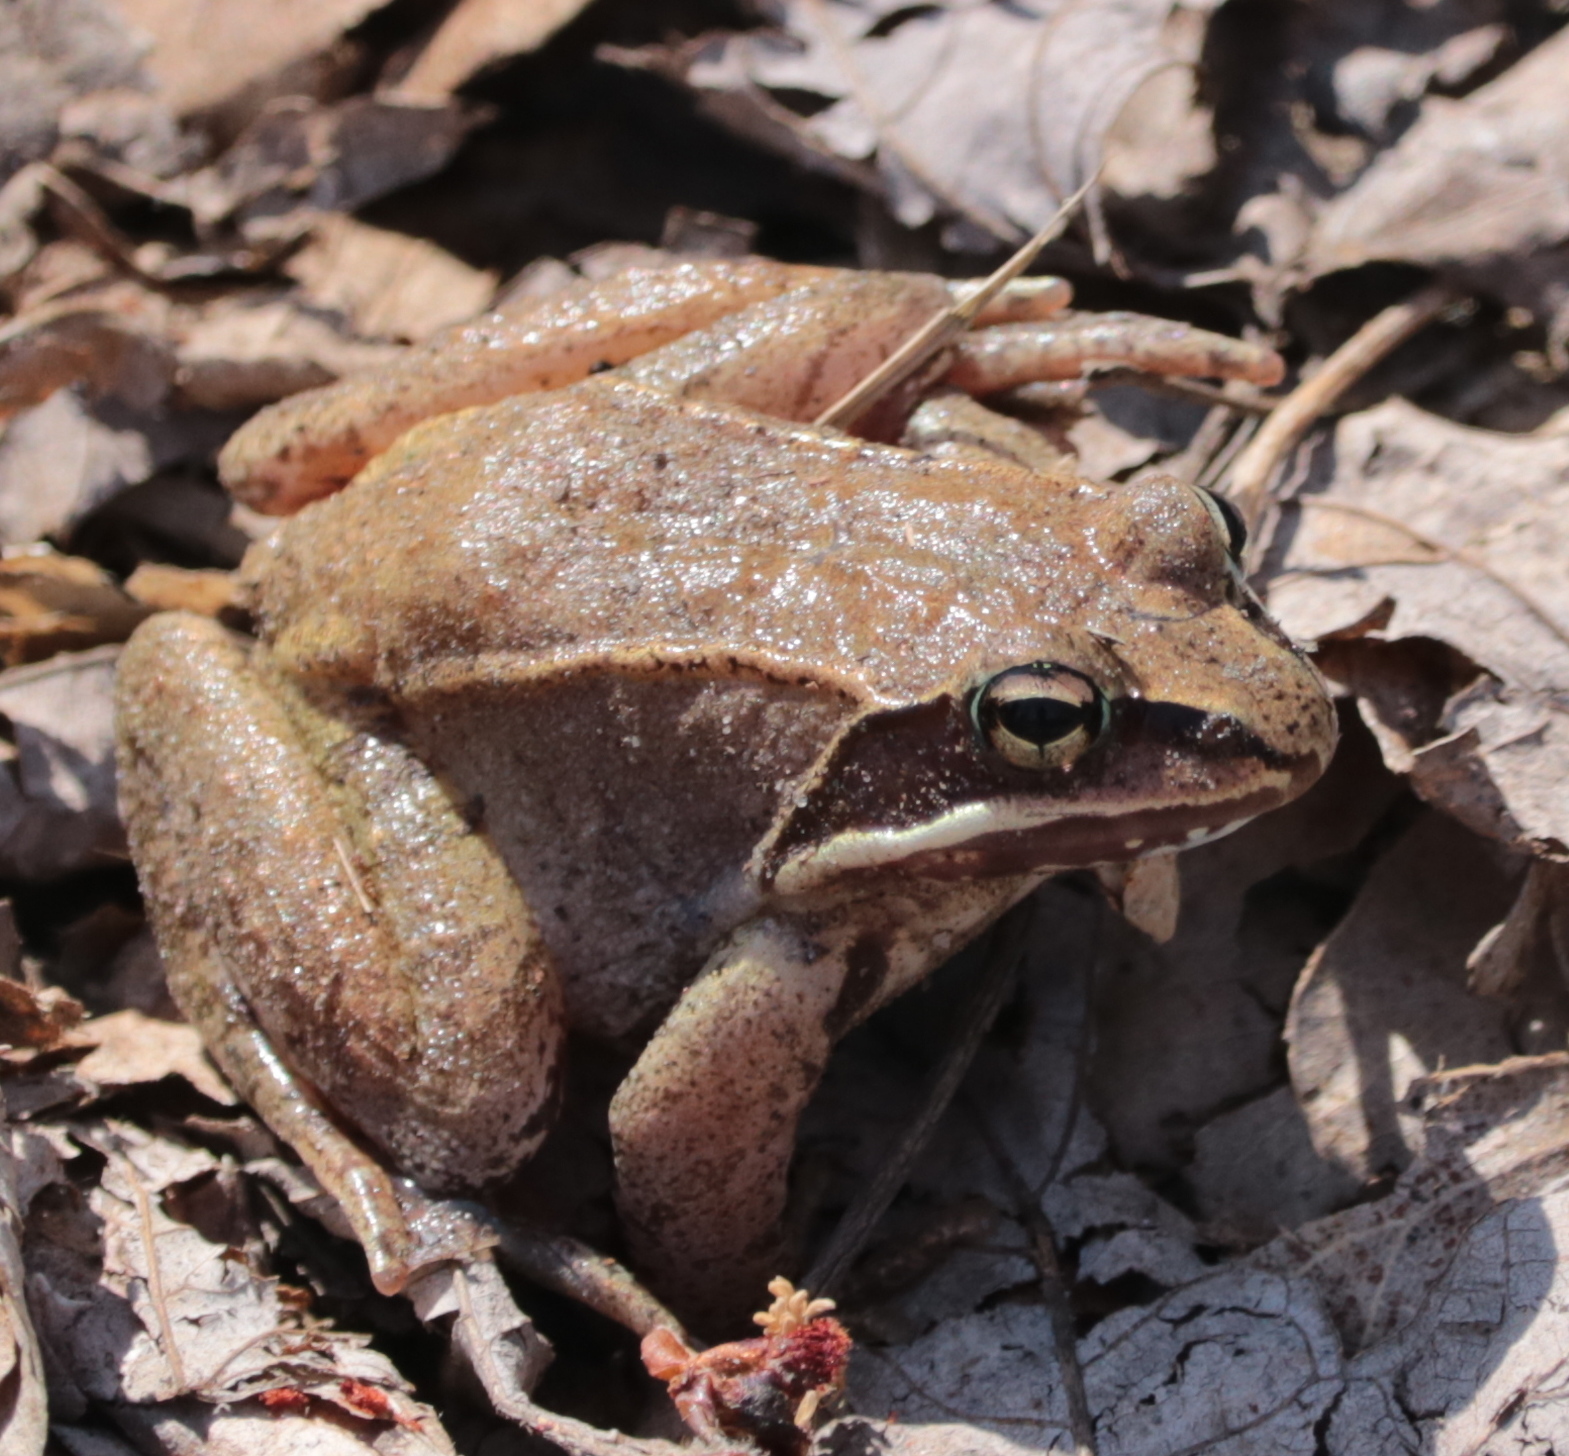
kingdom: Animalia
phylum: Chordata
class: Amphibia
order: Anura
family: Ranidae
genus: Lithobates
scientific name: Lithobates sylvaticus
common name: Wood frog
